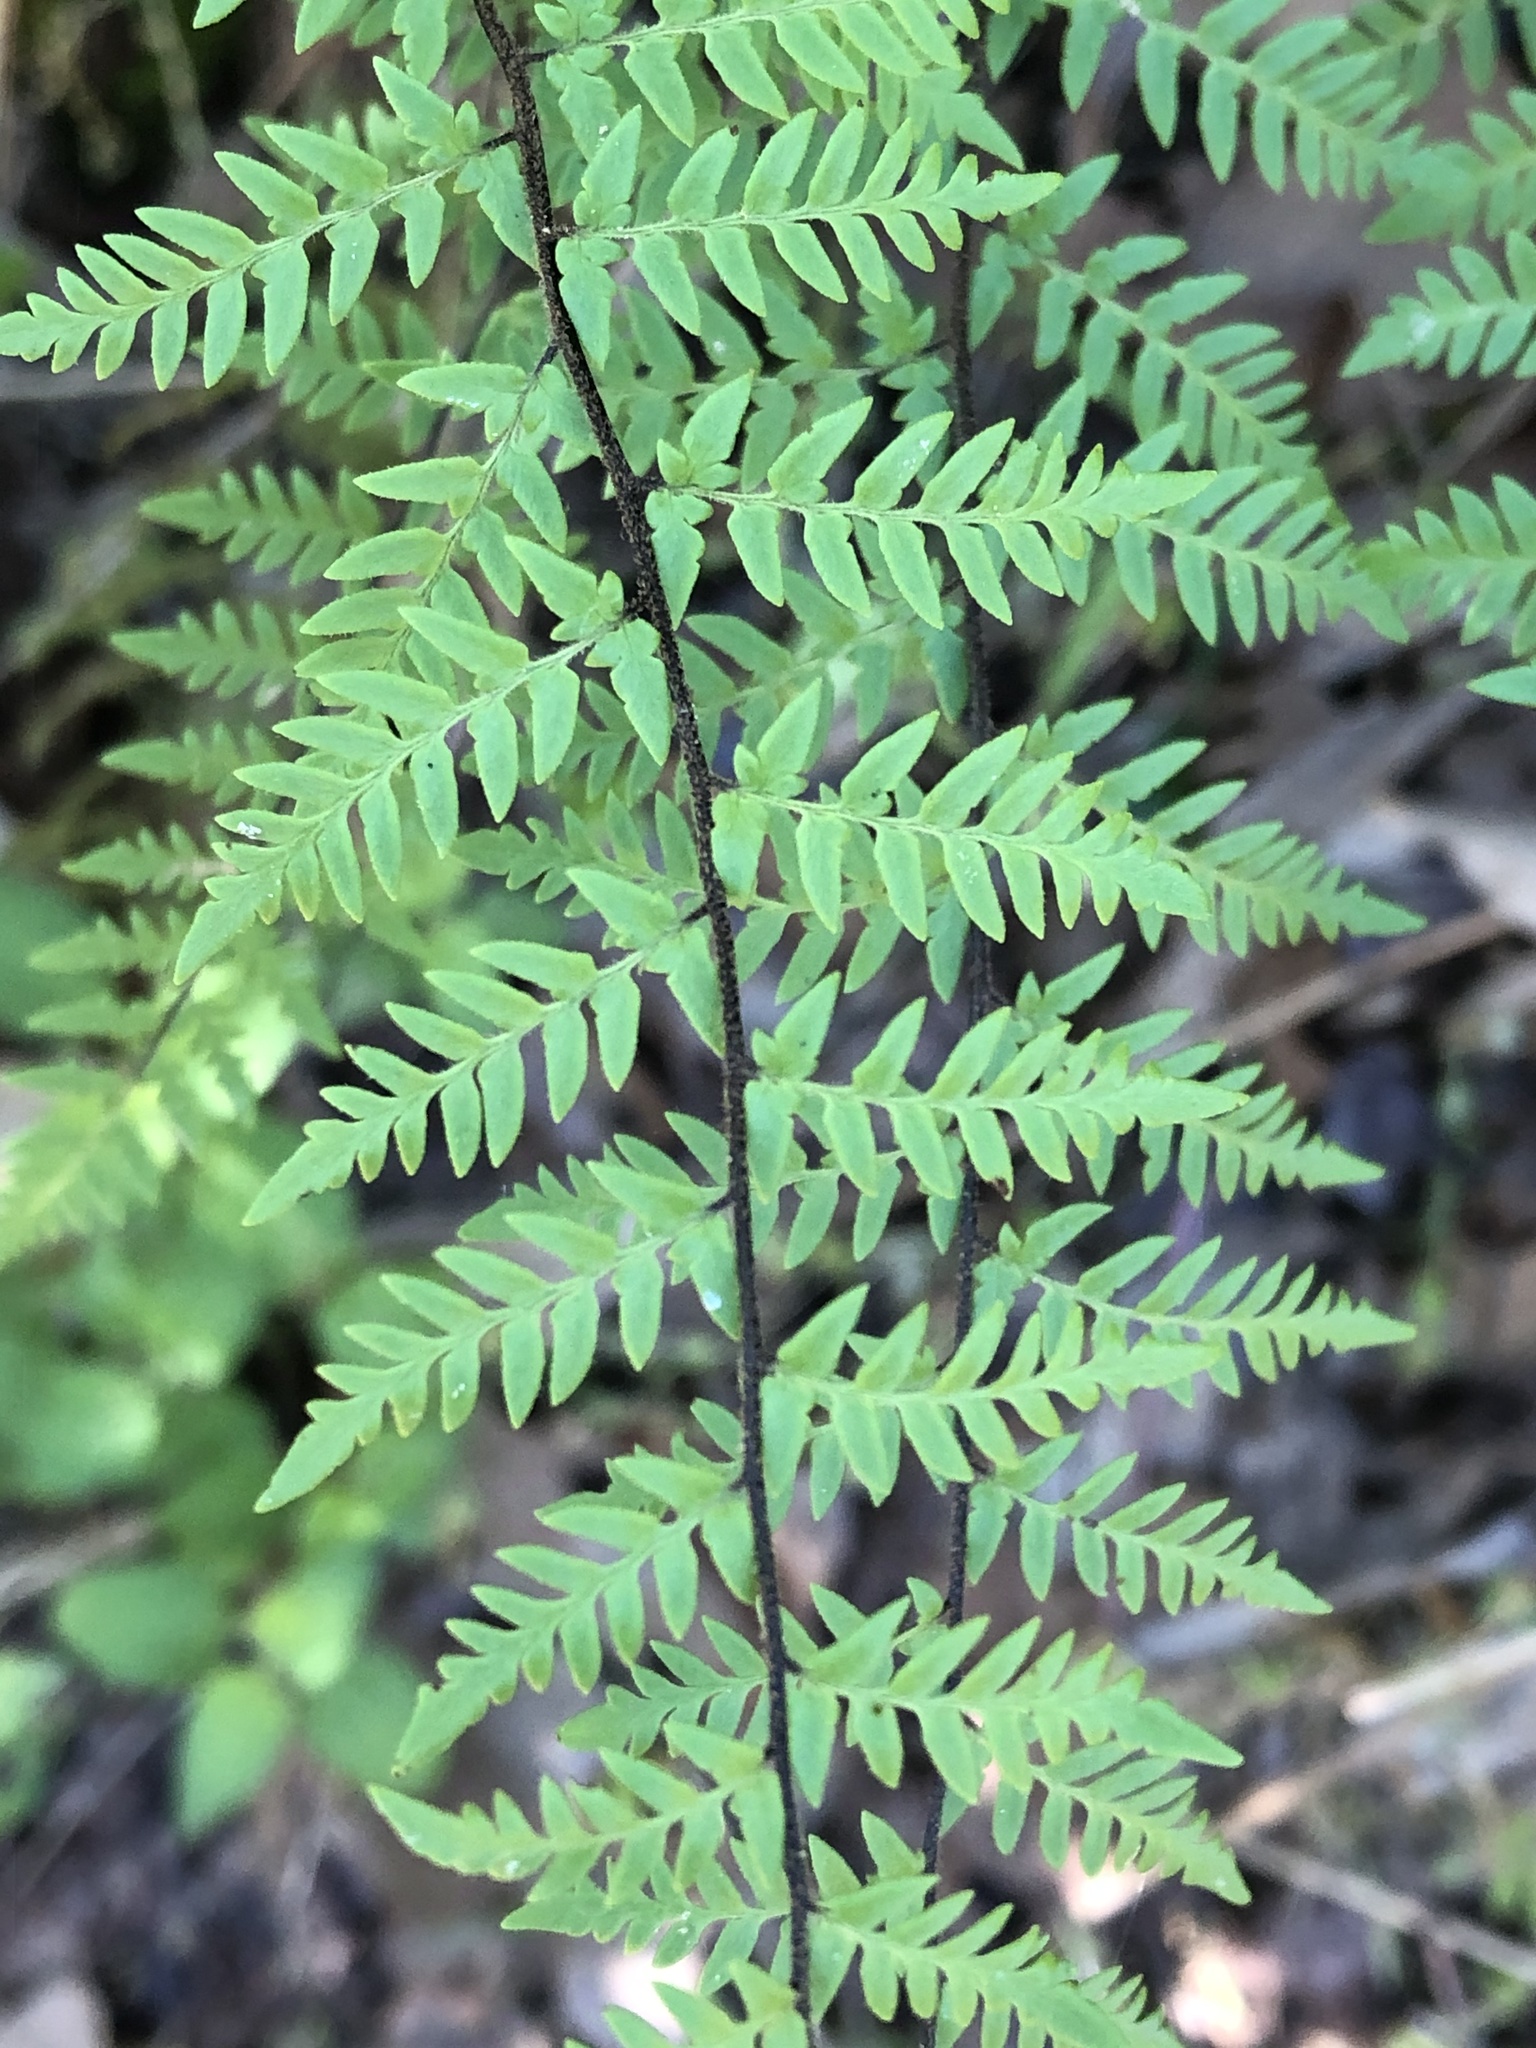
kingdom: Plantae
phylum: Tracheophyta
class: Polypodiopsida
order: Polypodiales
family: Pteridaceae
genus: Myriopteris
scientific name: Myriopteris alabamensis
